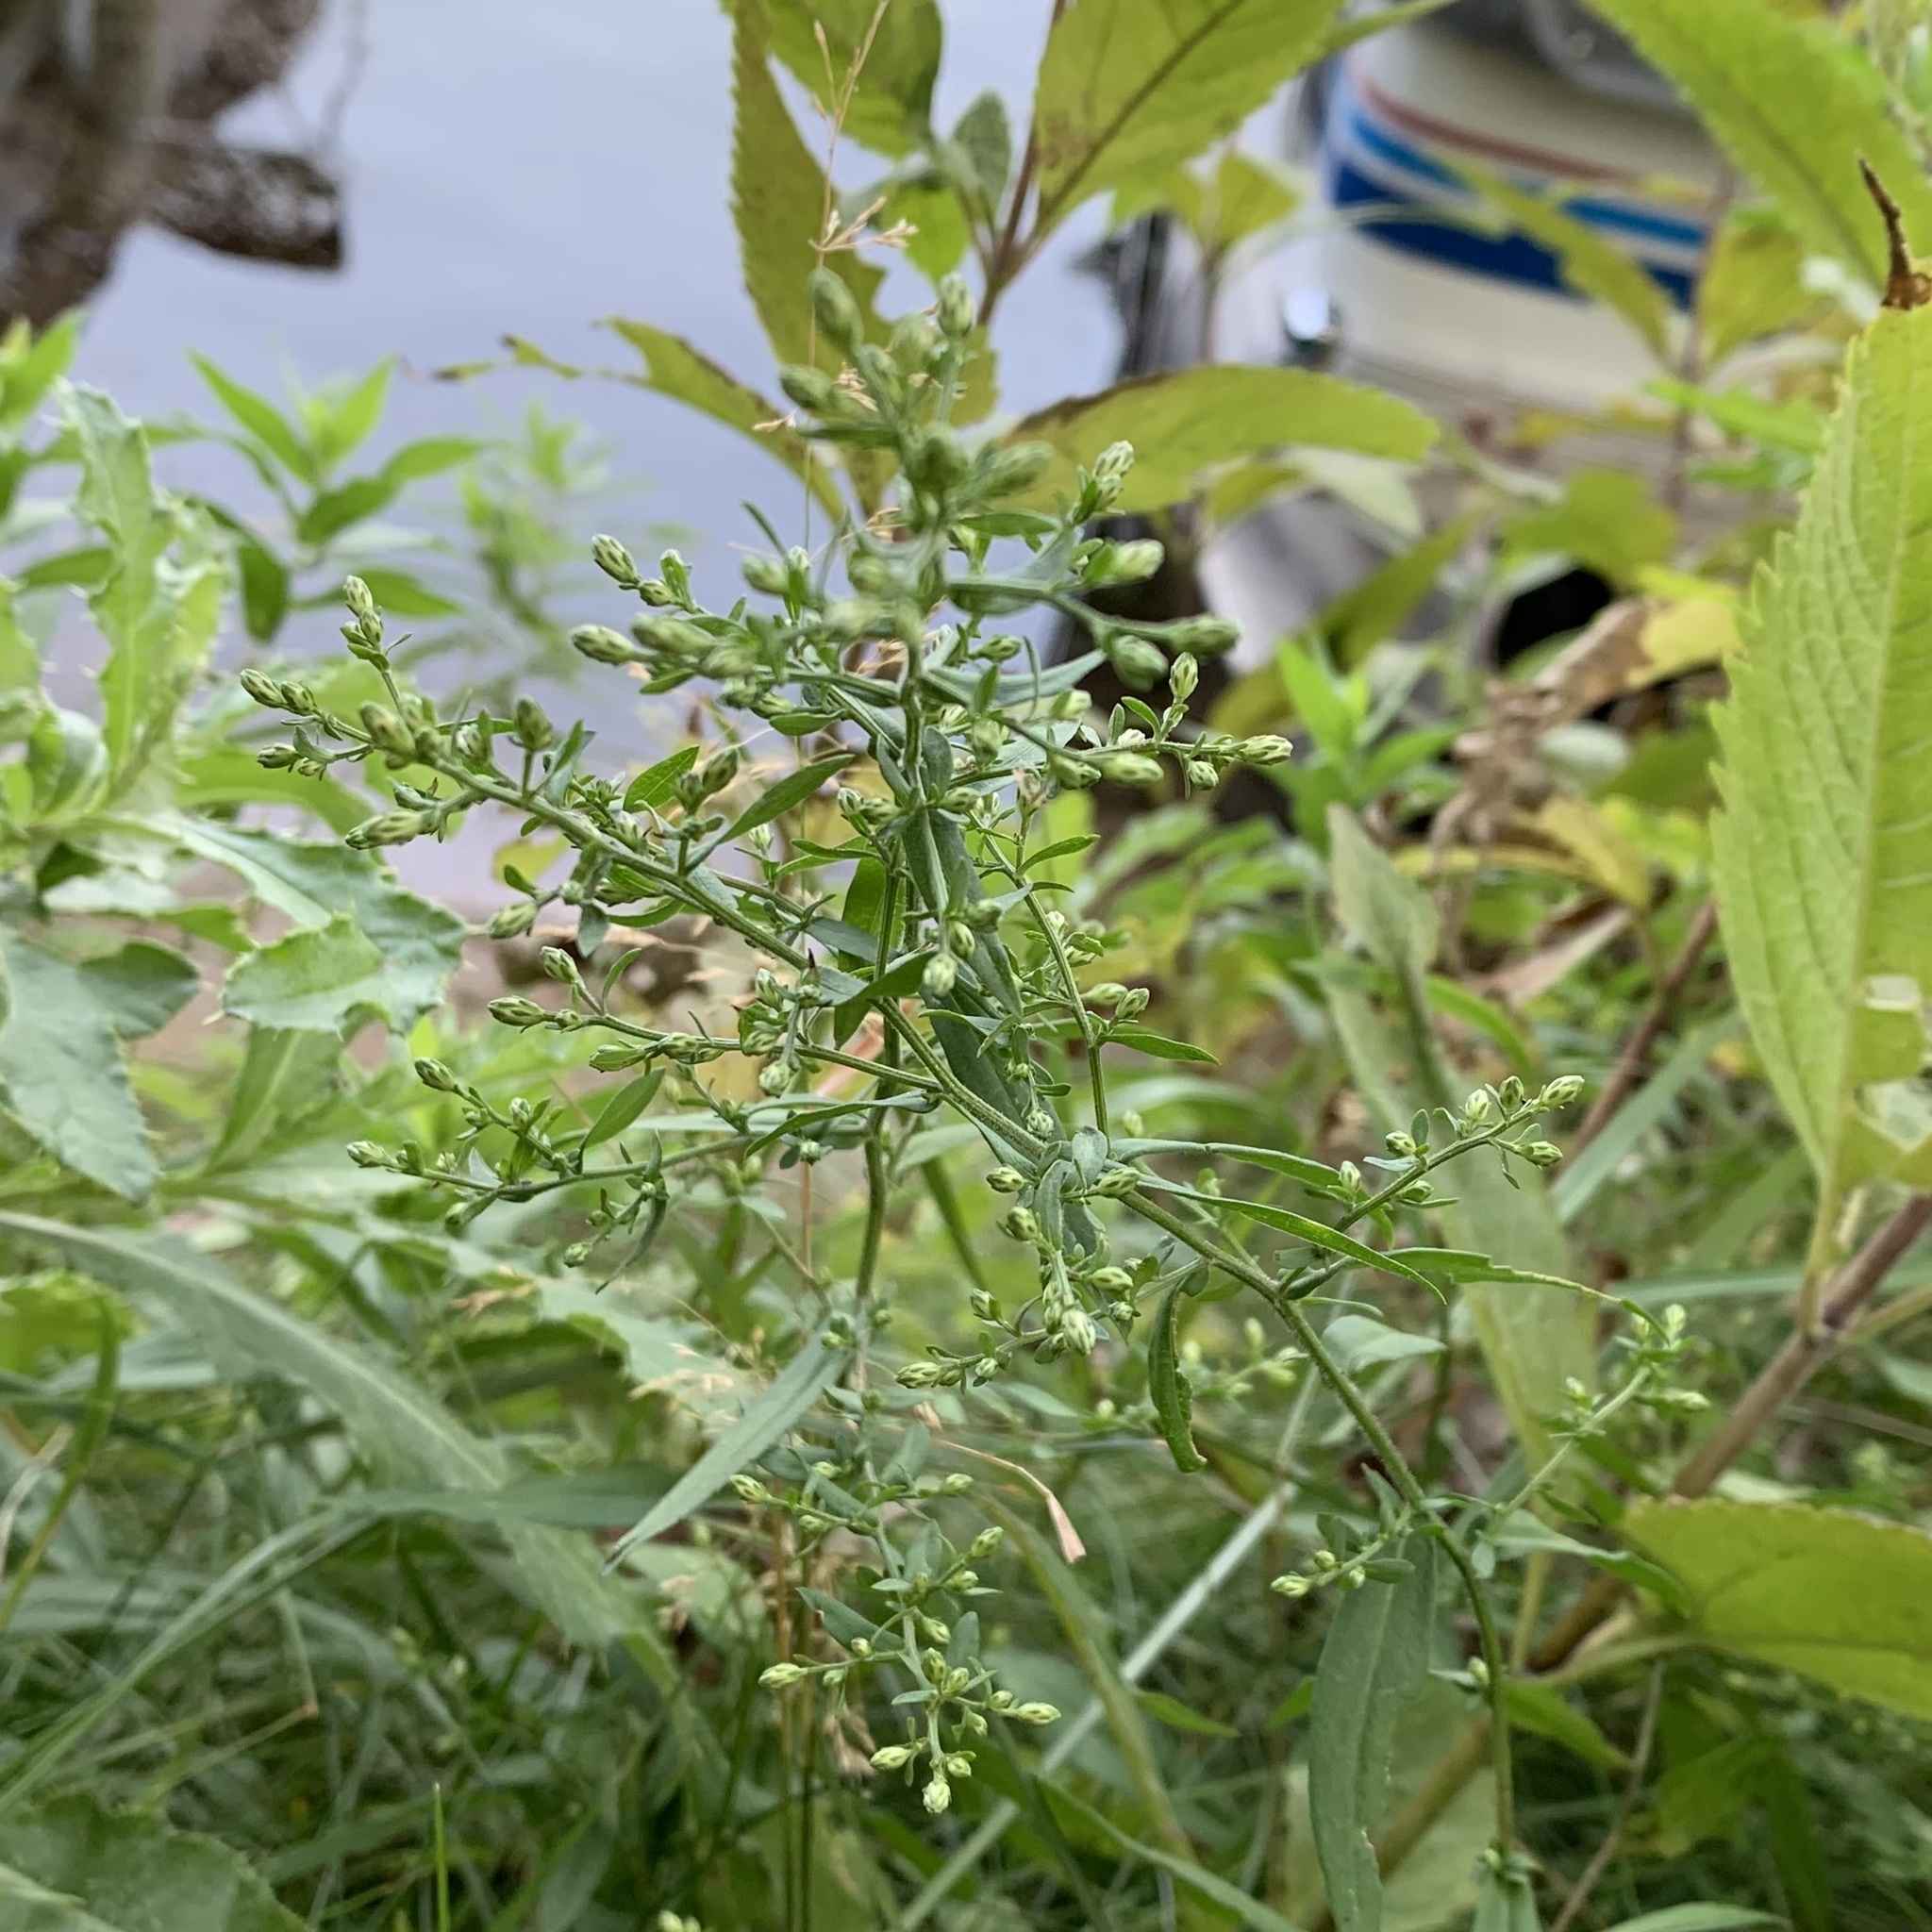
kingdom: Animalia
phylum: Arthropoda
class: Insecta
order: Diptera
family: Agromyzidae
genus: Calycomyza
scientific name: Calycomyza promissa
